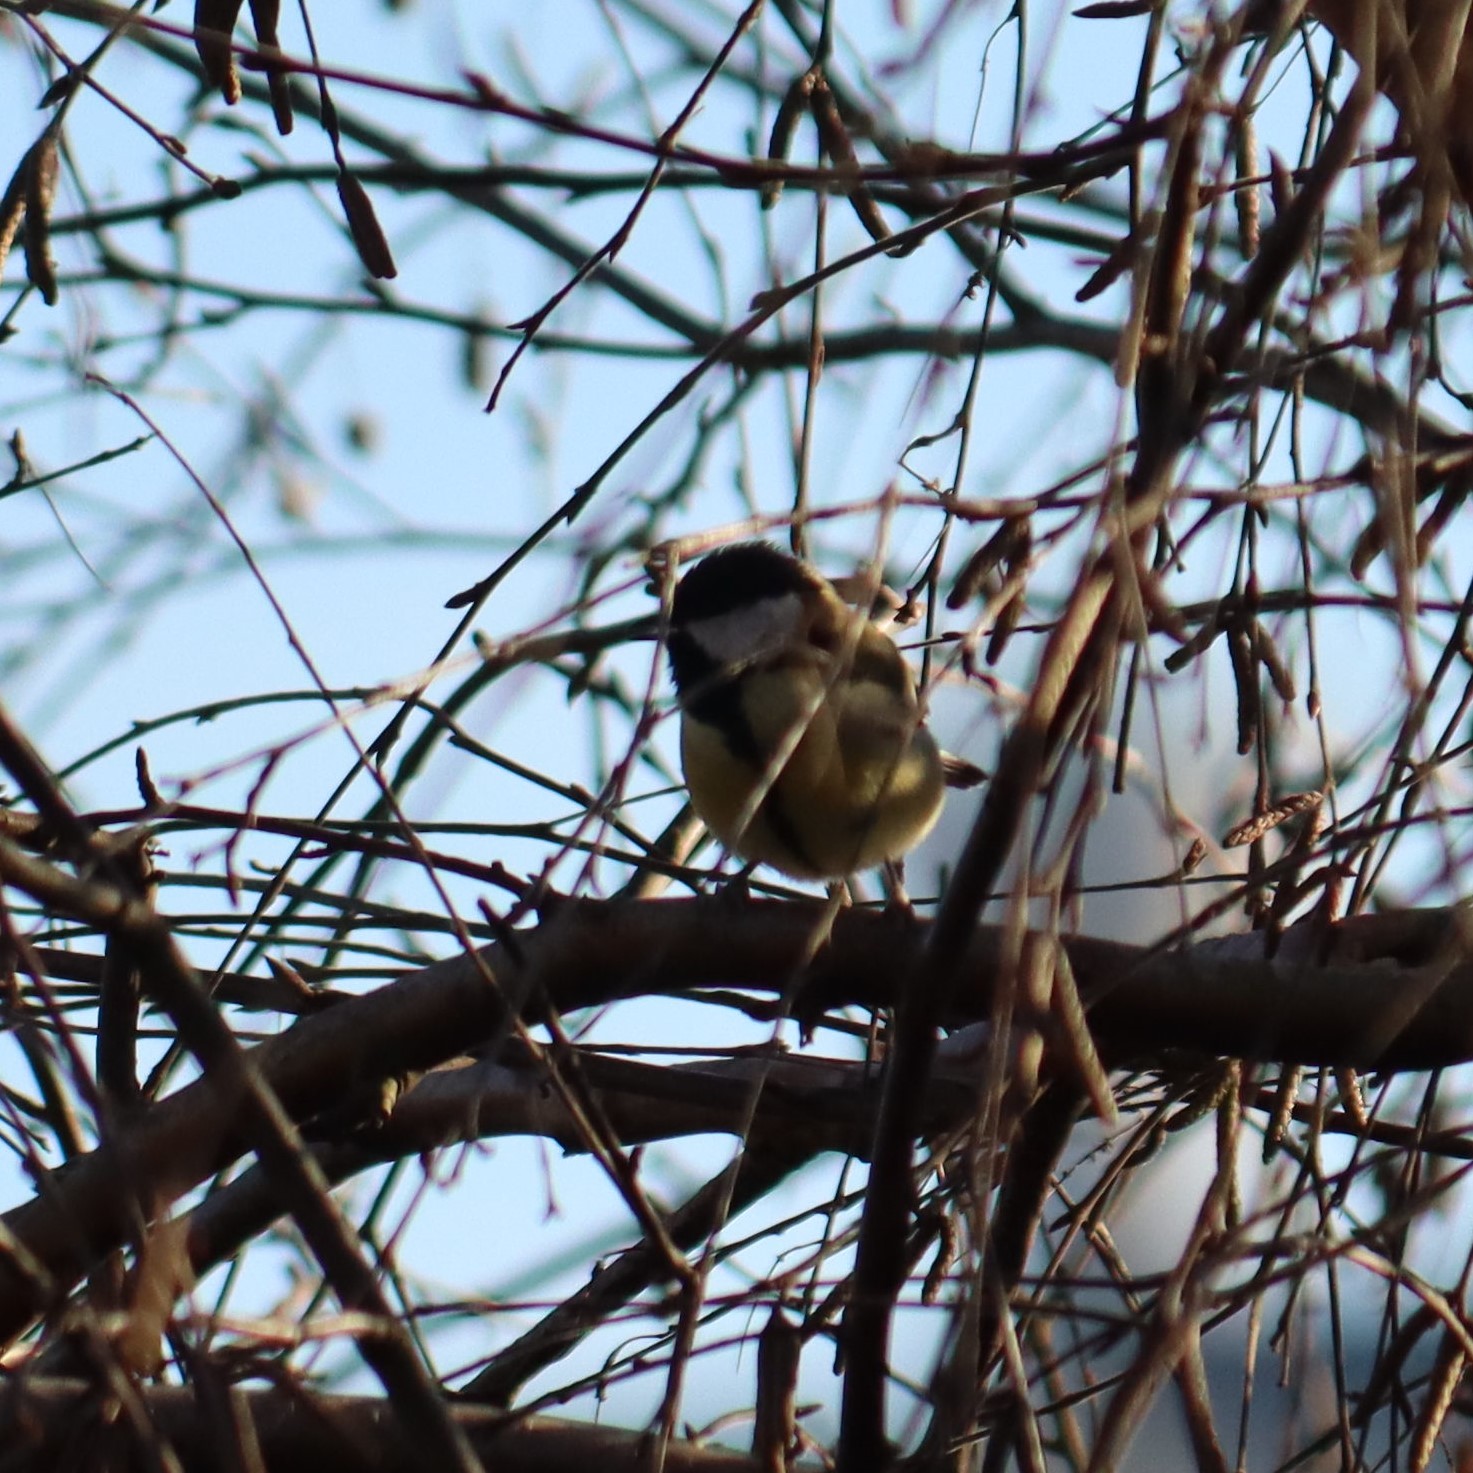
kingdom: Animalia
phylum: Chordata
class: Aves
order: Passeriformes
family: Paridae
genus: Parus
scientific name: Parus major
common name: Great tit
